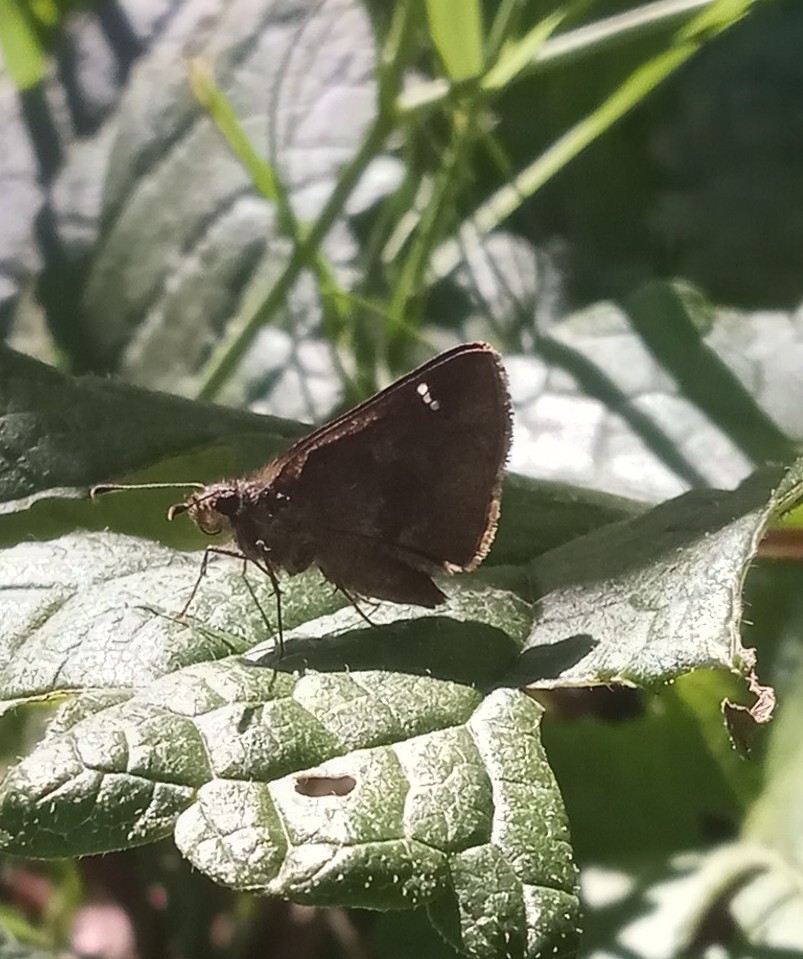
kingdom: Animalia
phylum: Arthropoda
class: Insecta
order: Lepidoptera
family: Hesperiidae
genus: Cymaenes
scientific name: Cymaenes
